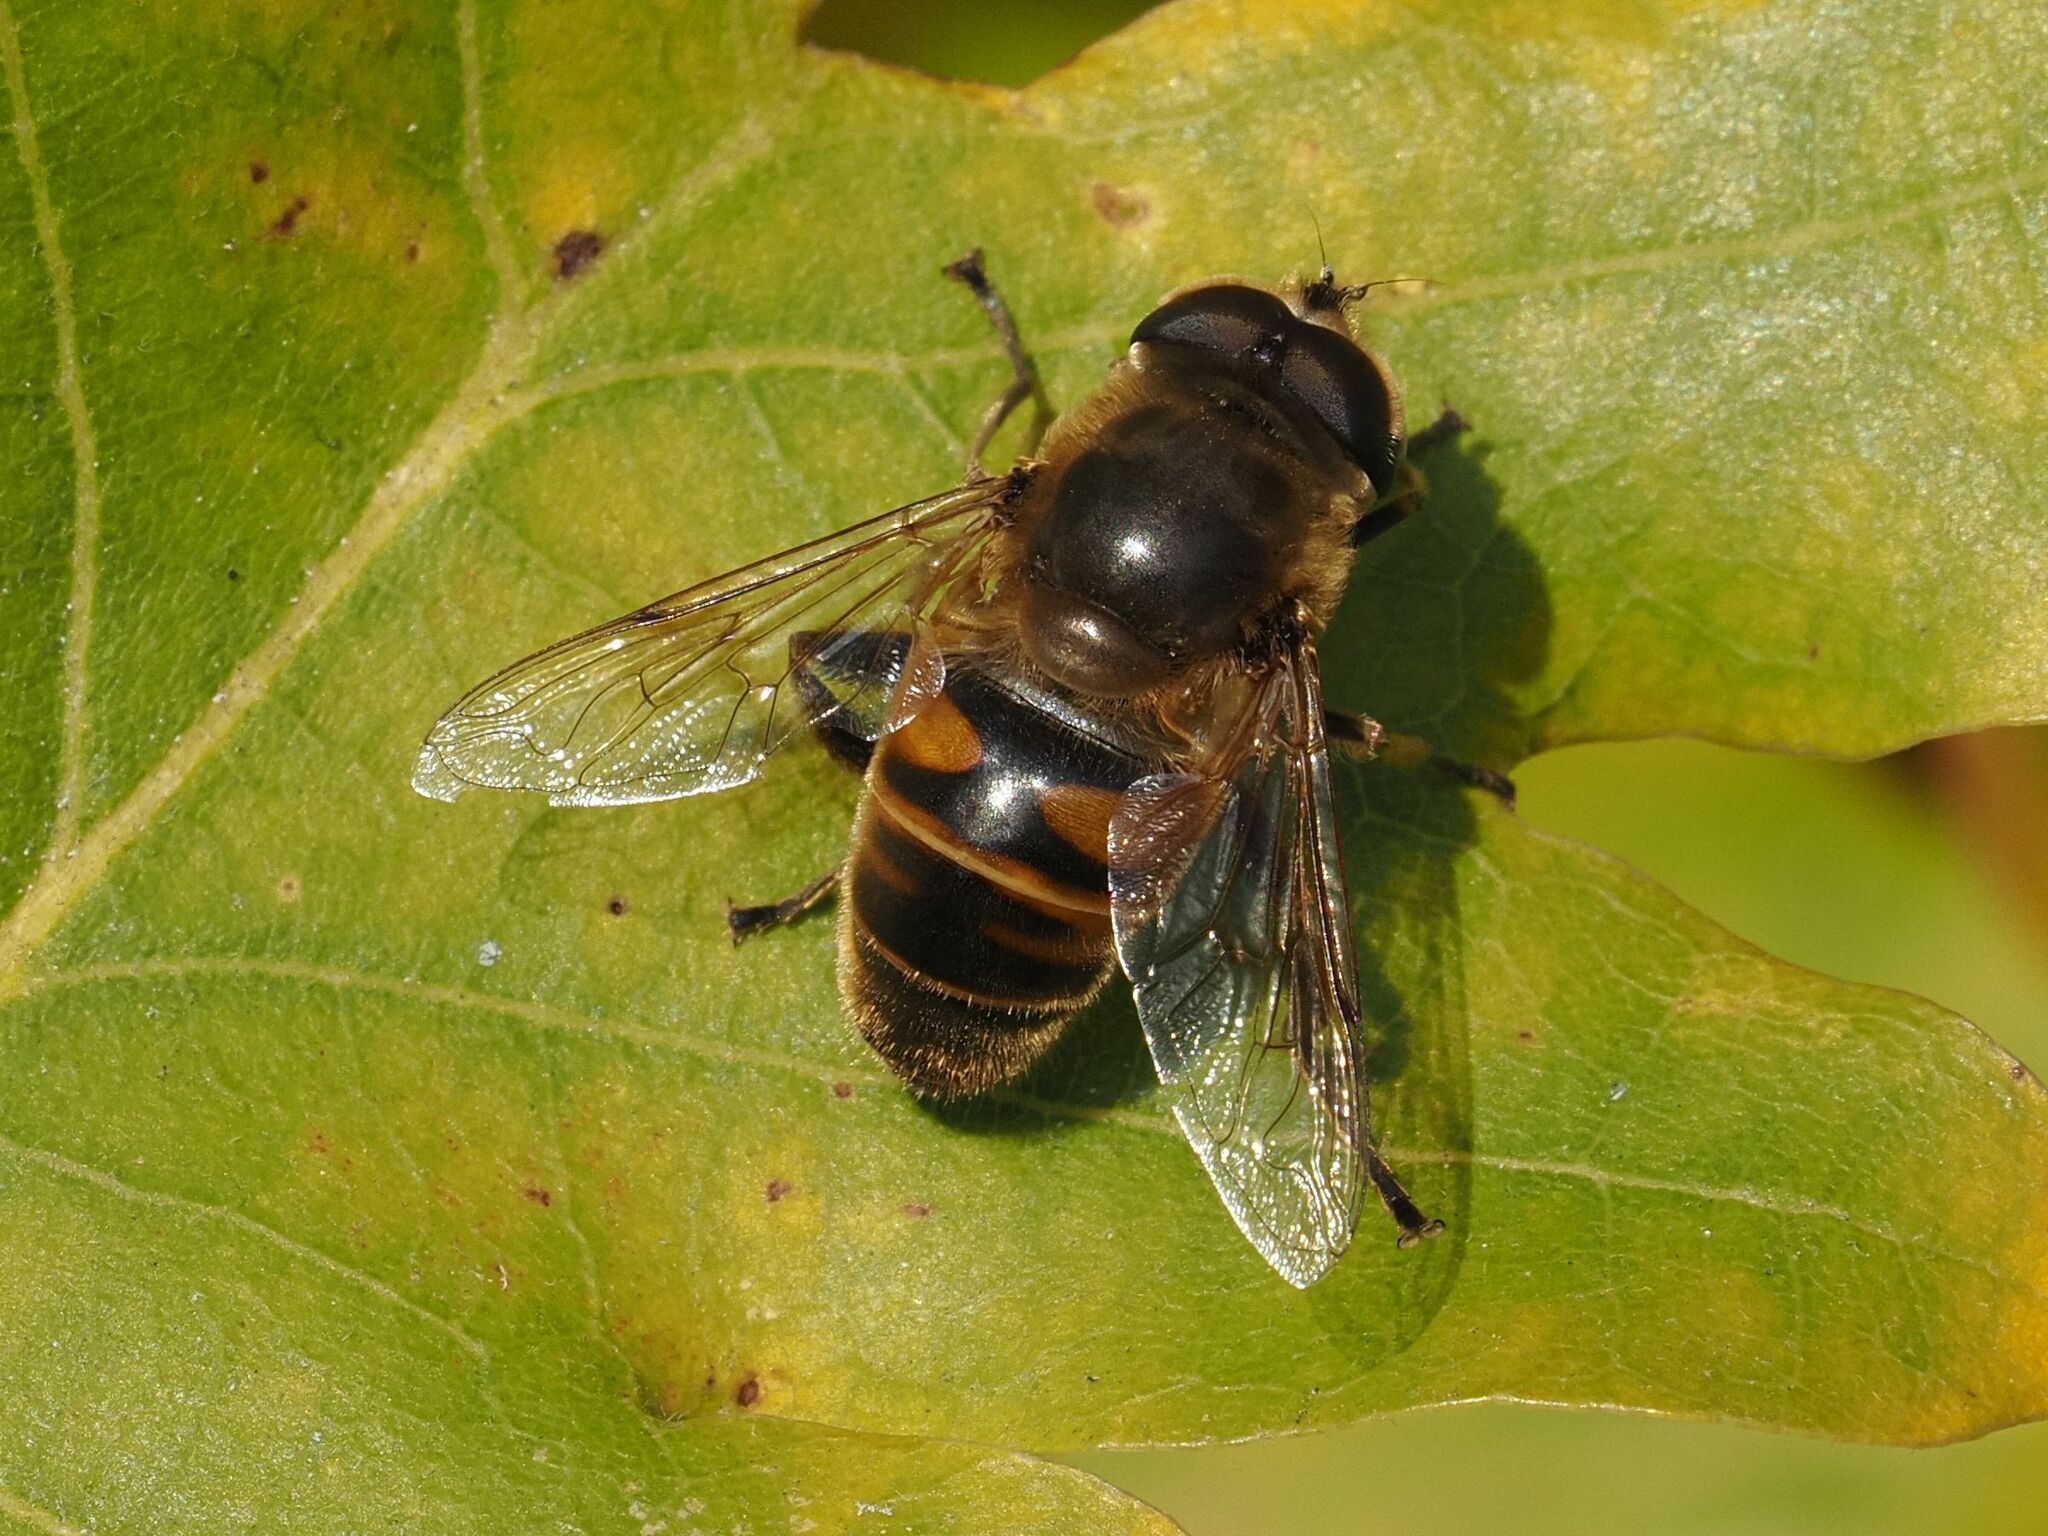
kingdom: Animalia
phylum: Arthropoda
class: Insecta
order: Diptera
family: Syrphidae
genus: Eristalis
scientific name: Eristalis tenax
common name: Drone fly
